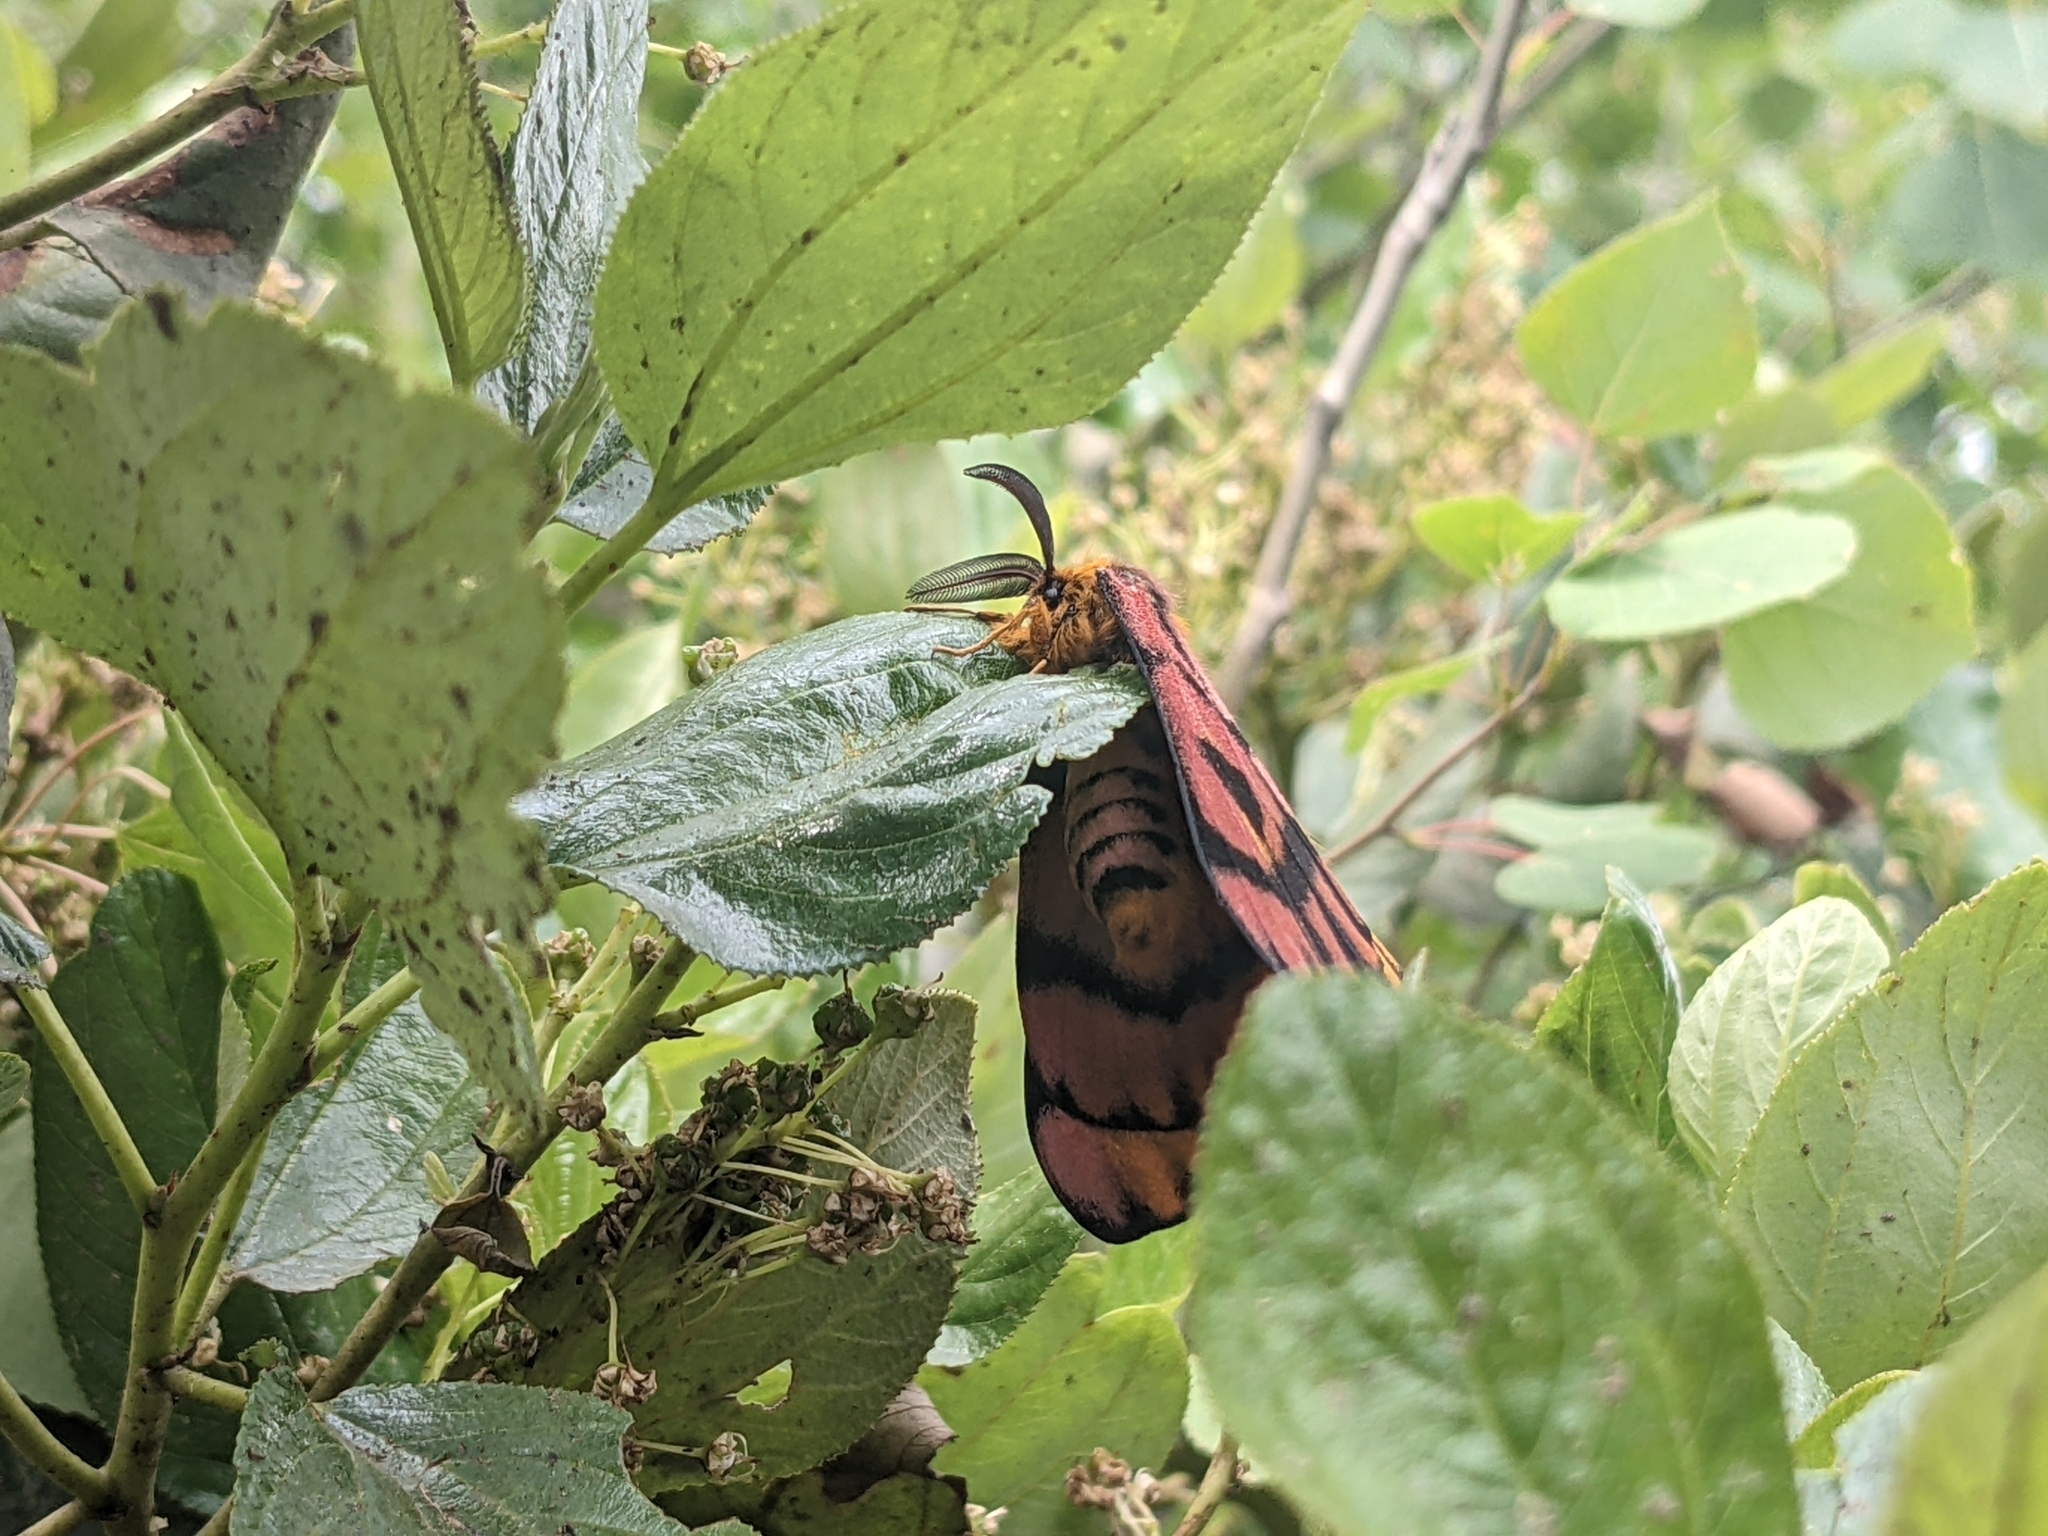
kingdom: Animalia
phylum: Arthropoda
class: Insecta
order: Lepidoptera
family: Saturniidae
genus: Hemileuca
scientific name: Hemileuca eglanterina
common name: Western sheepmoth
